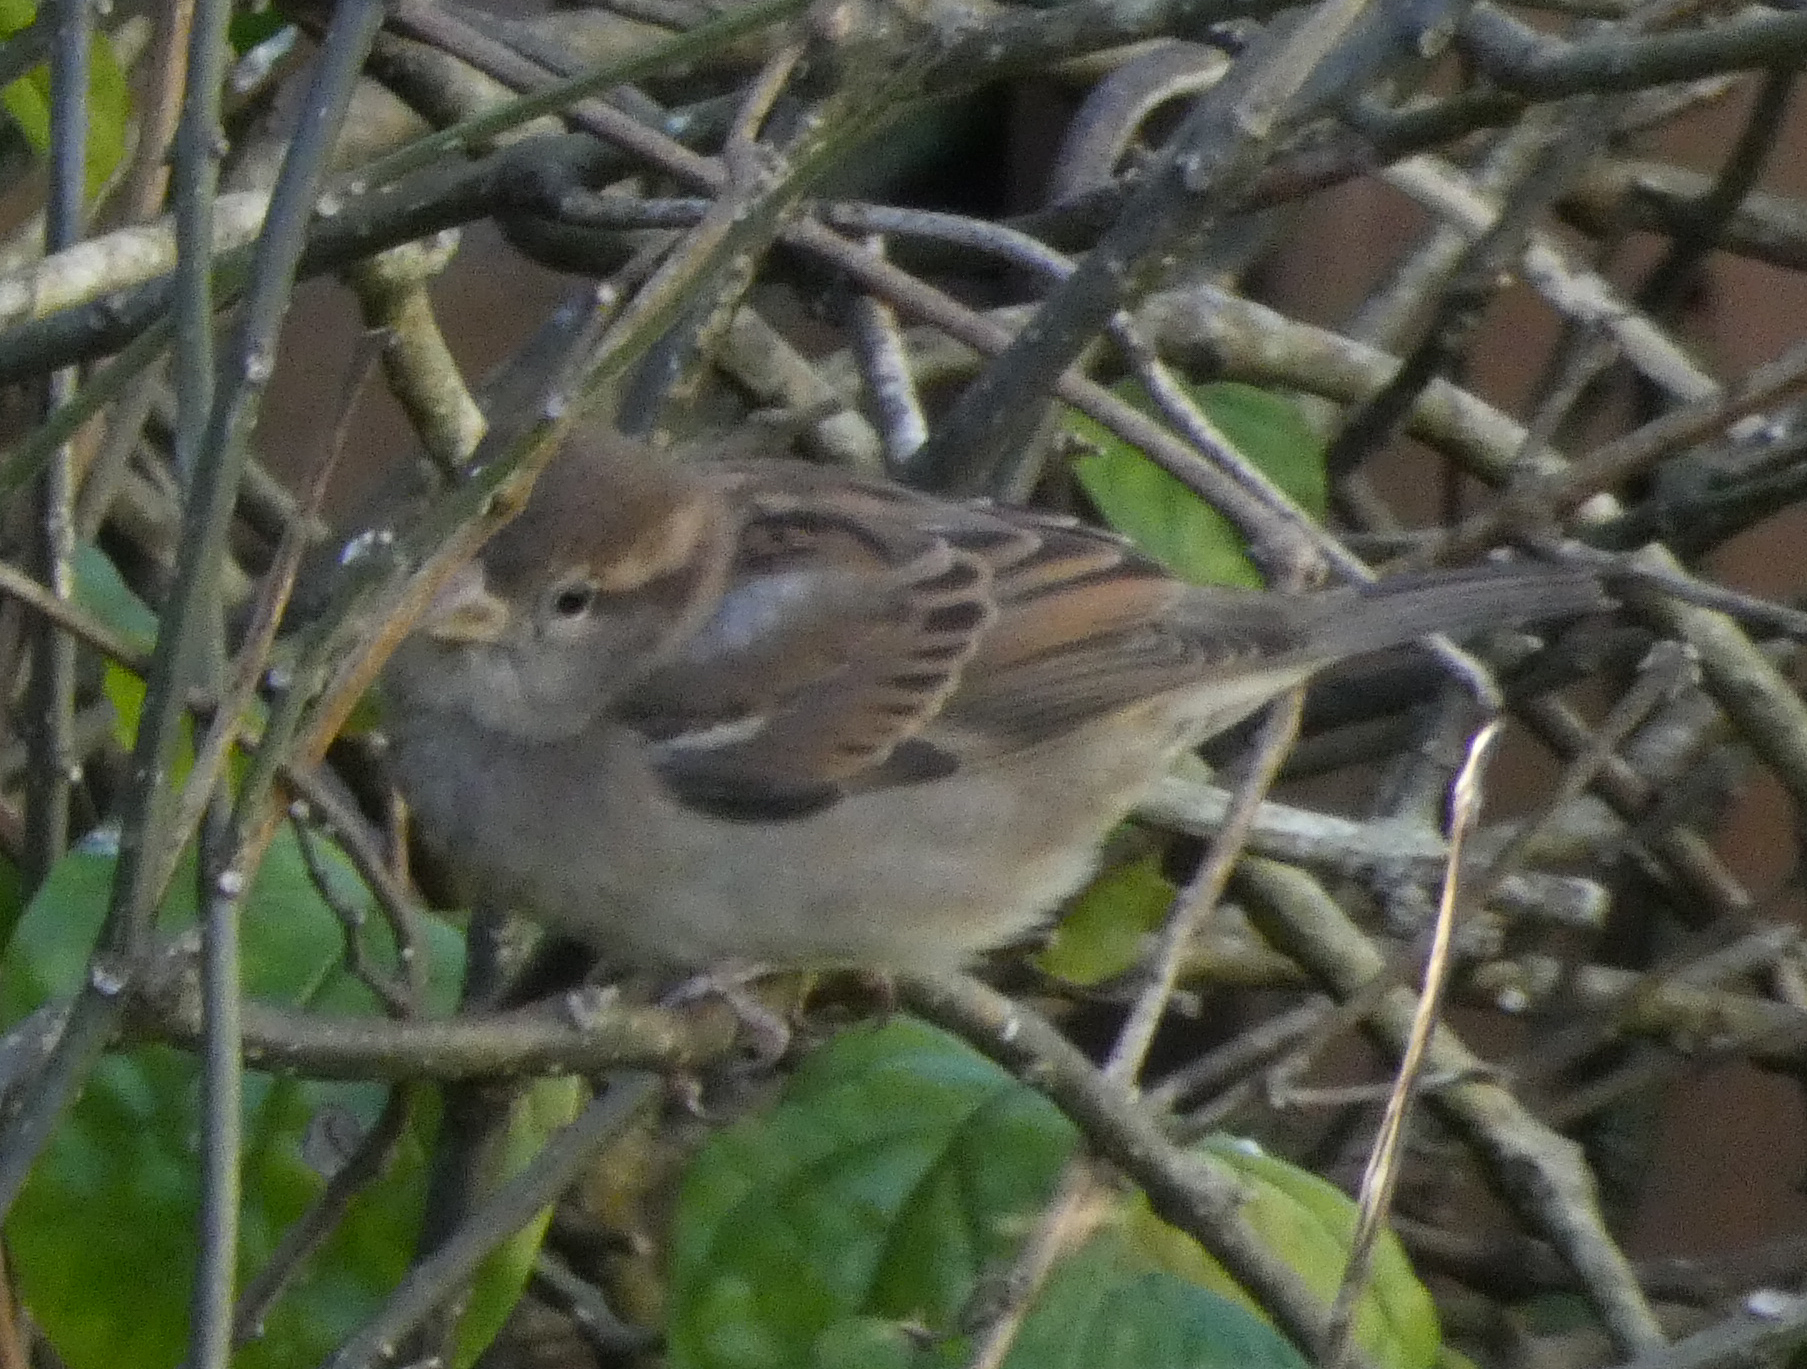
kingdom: Animalia
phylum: Chordata
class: Aves
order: Passeriformes
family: Passeridae
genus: Passer
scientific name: Passer domesticus
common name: House sparrow
